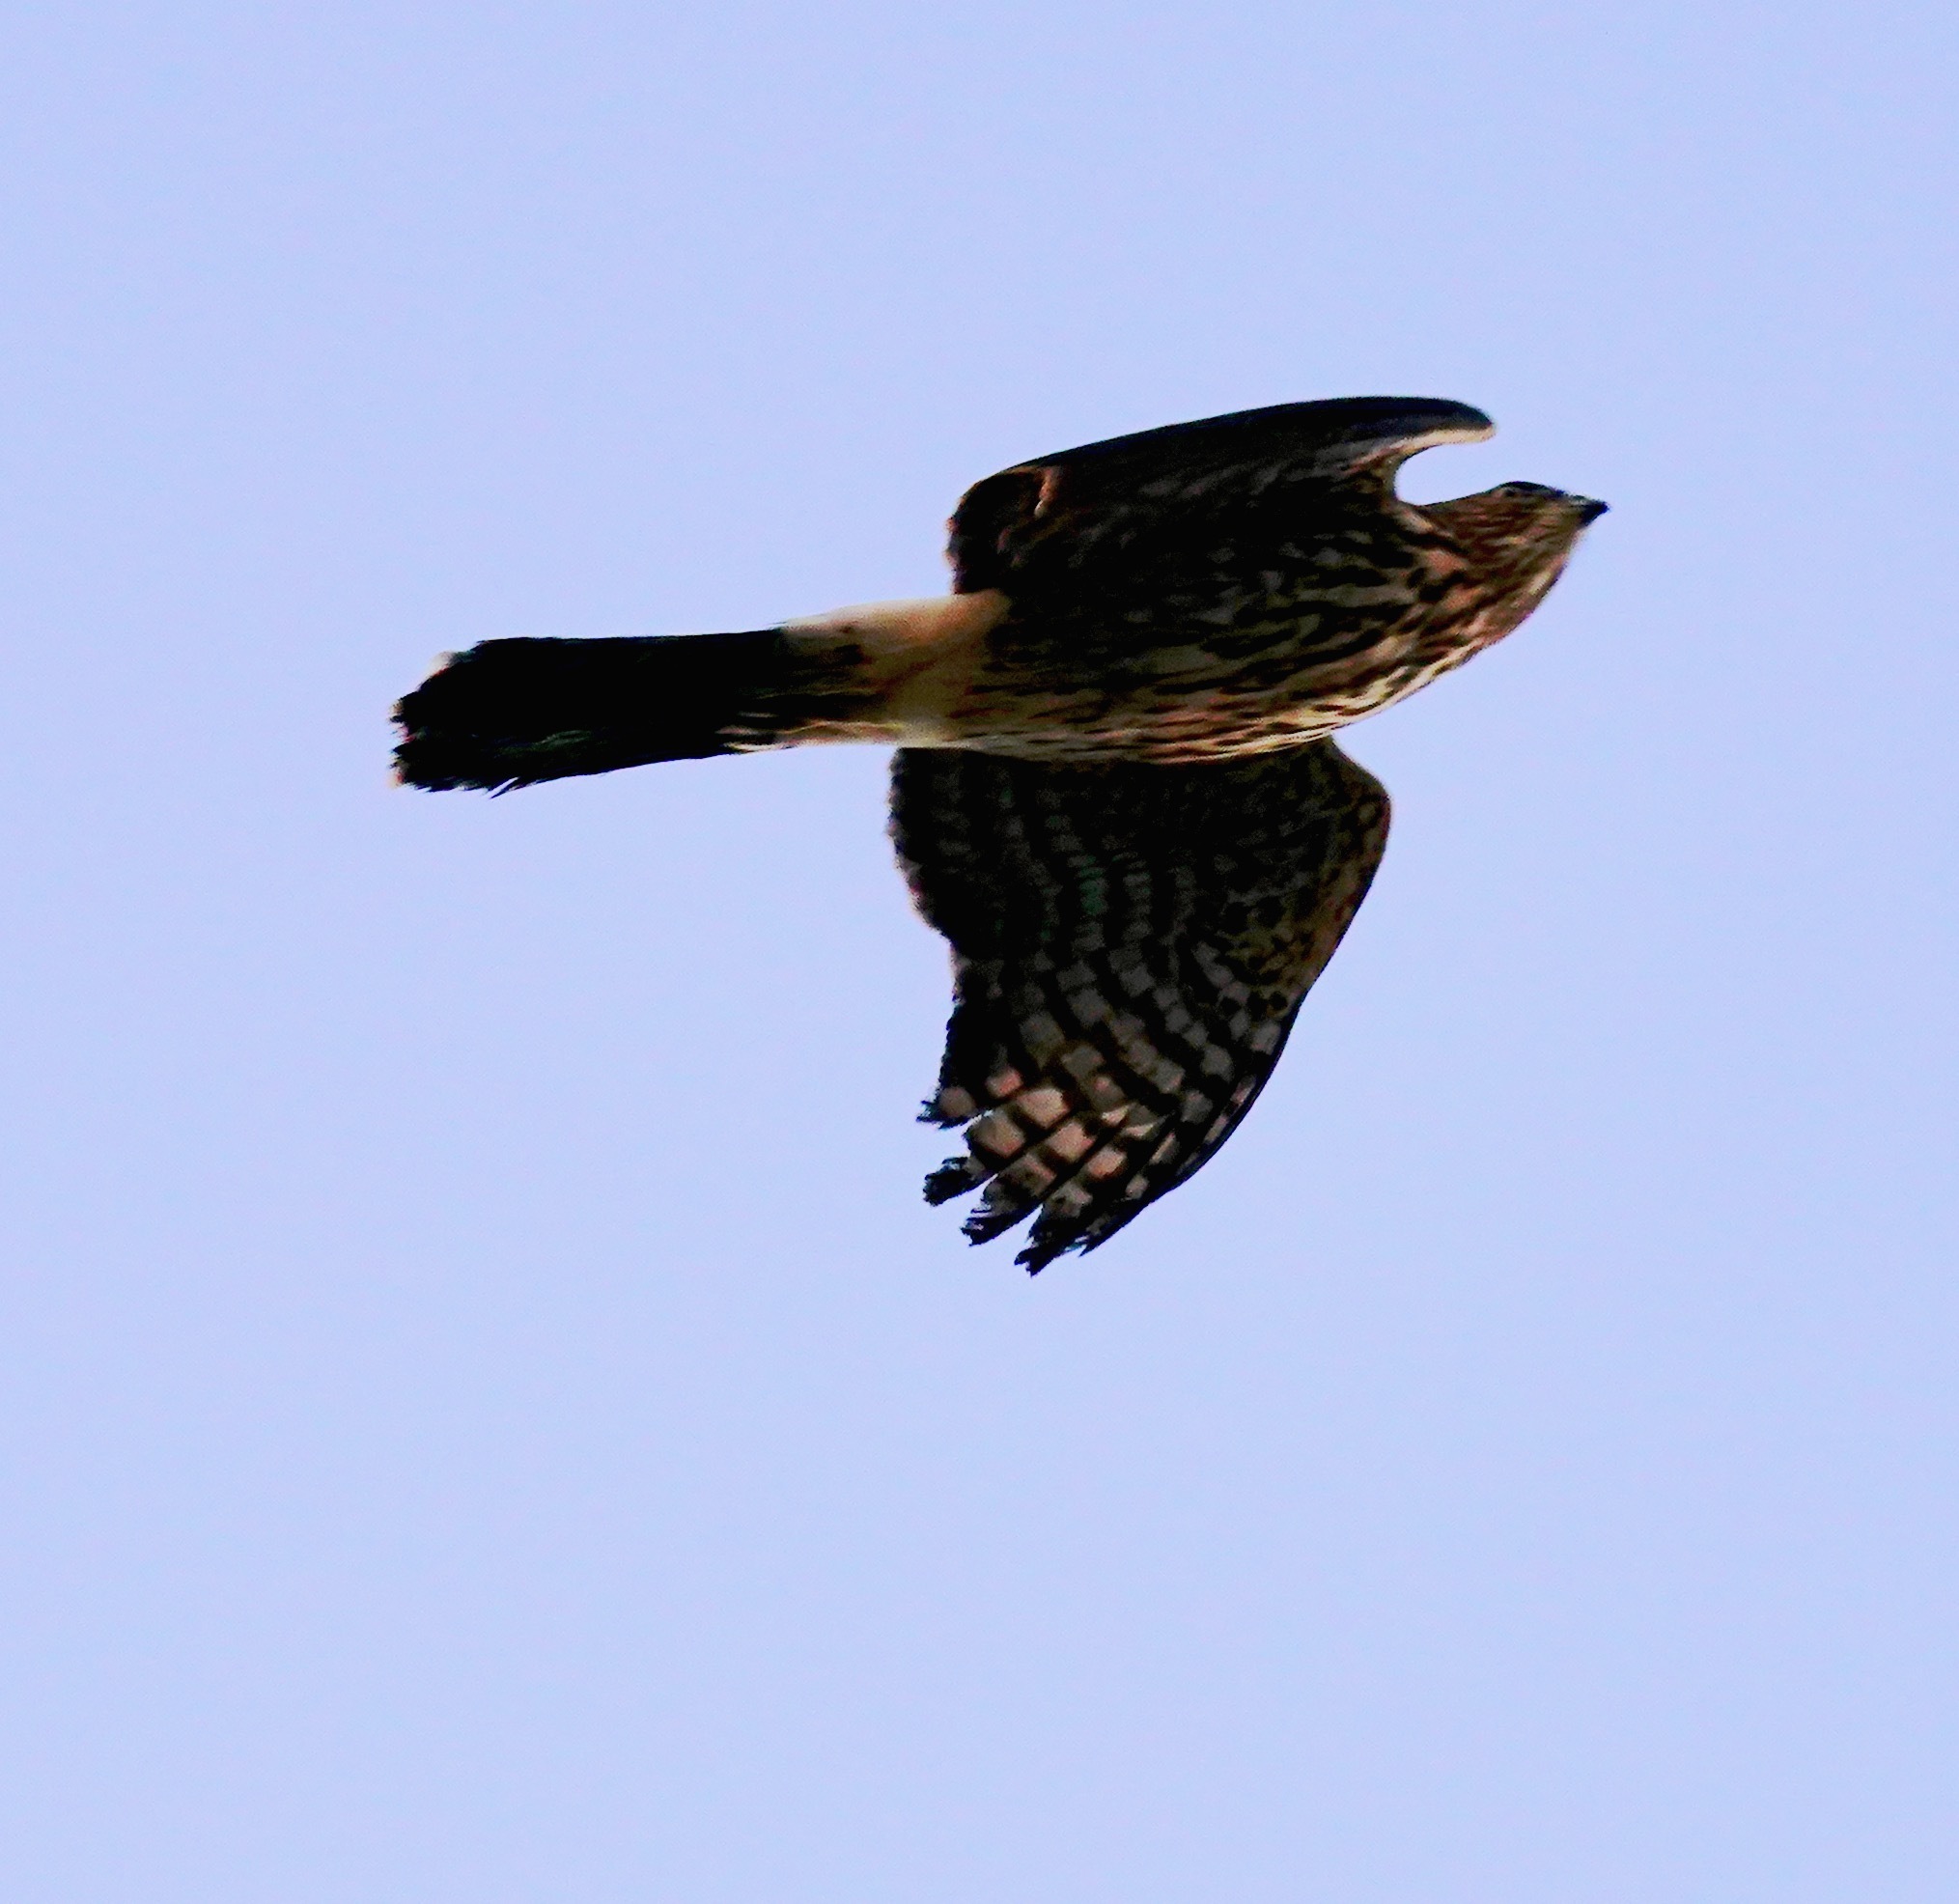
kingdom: Animalia
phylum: Chordata
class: Aves
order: Accipitriformes
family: Accipitridae
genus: Accipiter
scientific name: Accipiter cooperii
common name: Cooper's hawk
